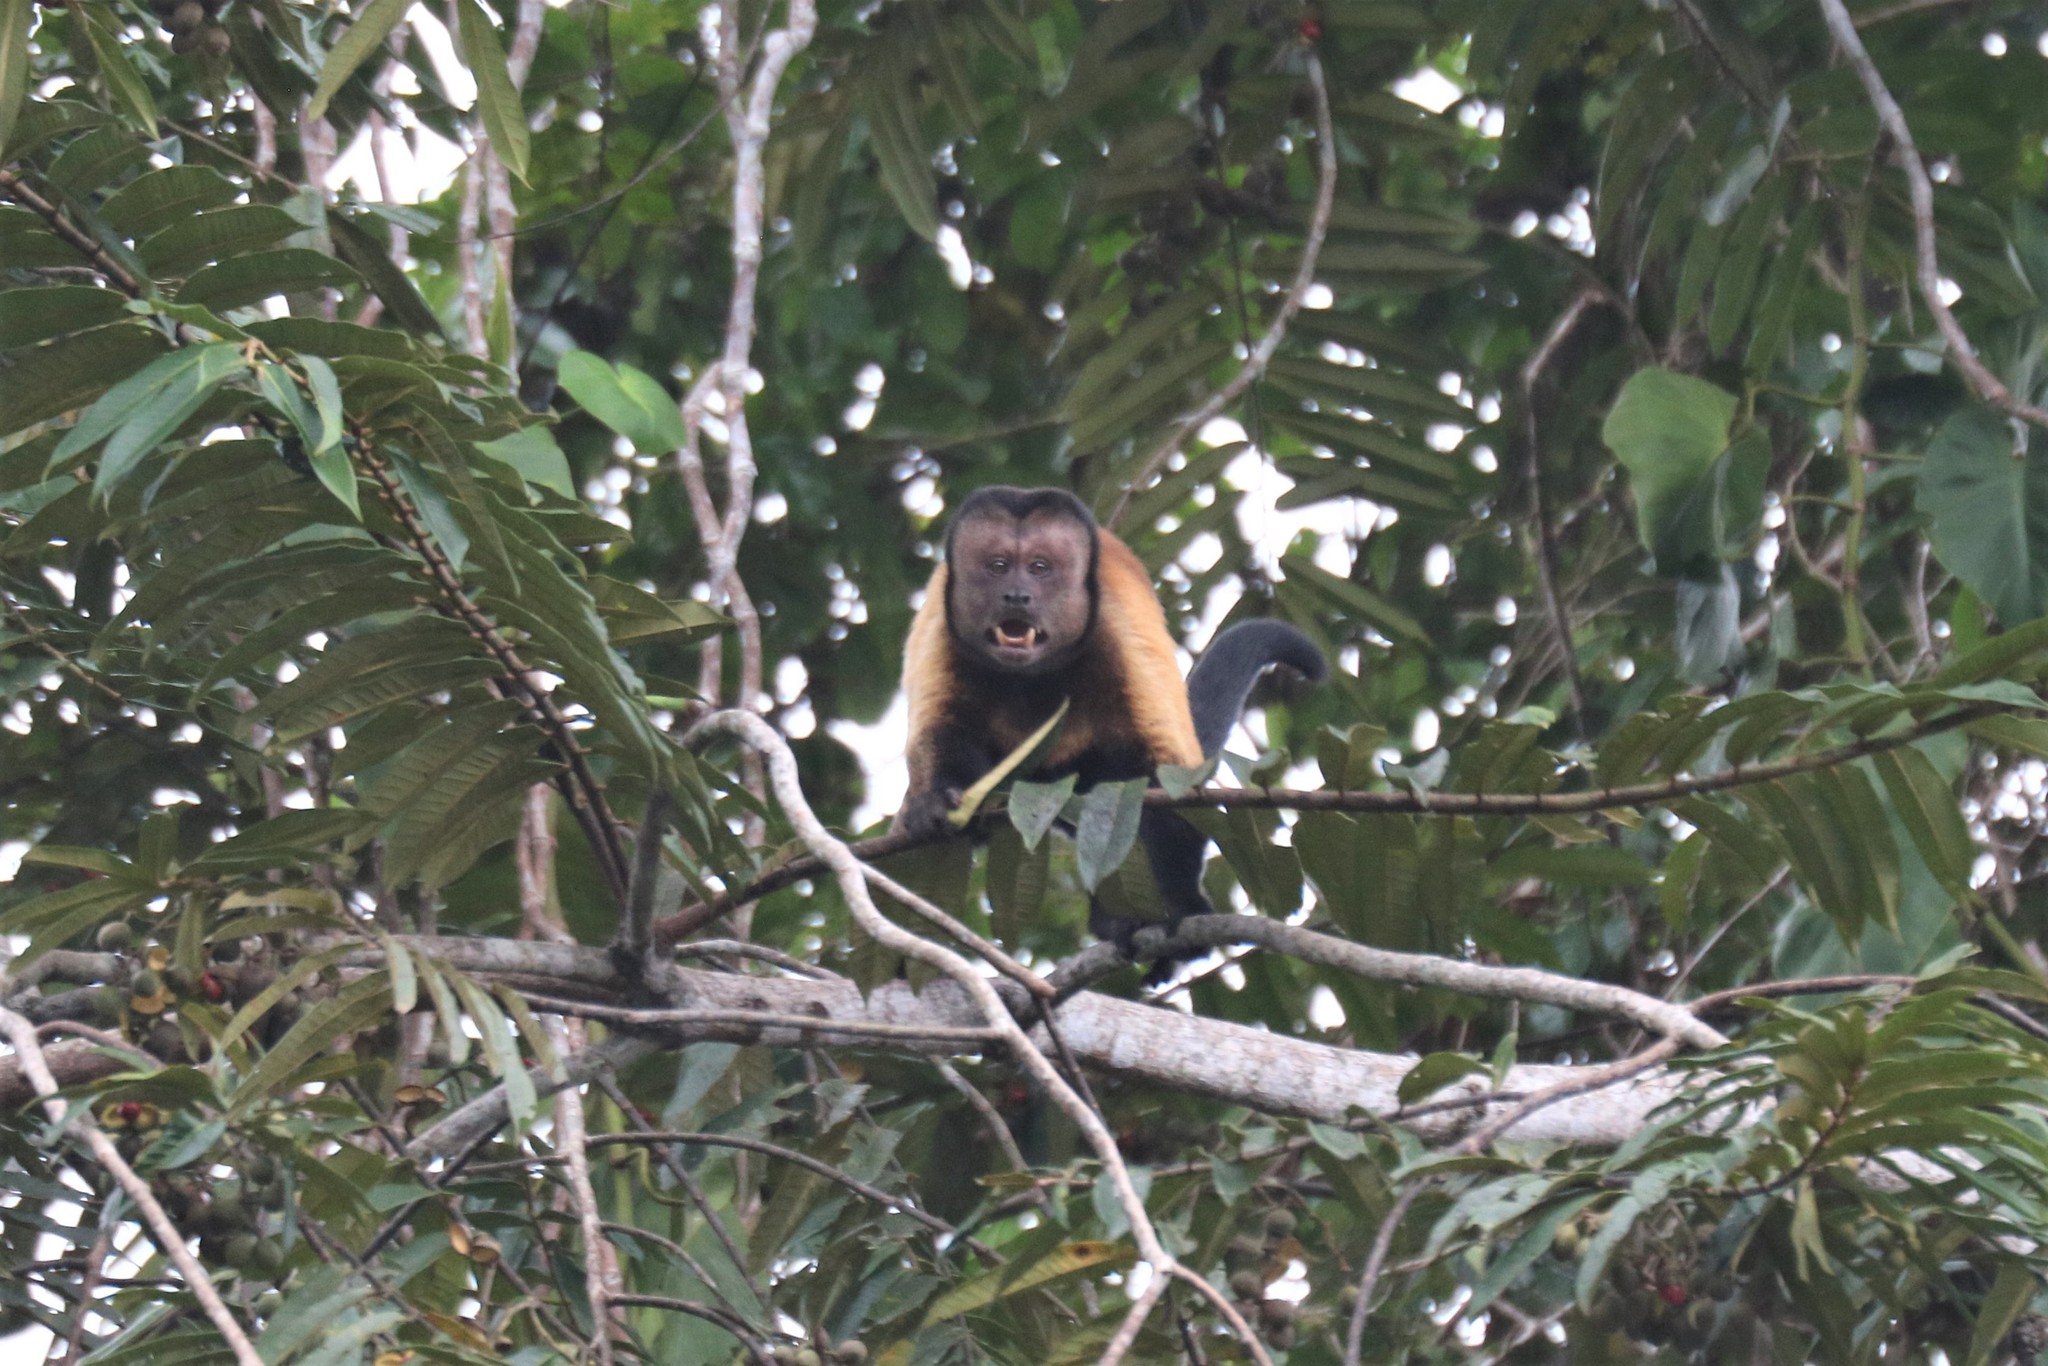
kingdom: Animalia
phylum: Chordata
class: Mammalia
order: Primates
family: Cebidae
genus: Sapajus
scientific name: Sapajus apella
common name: Tufted capuchin
